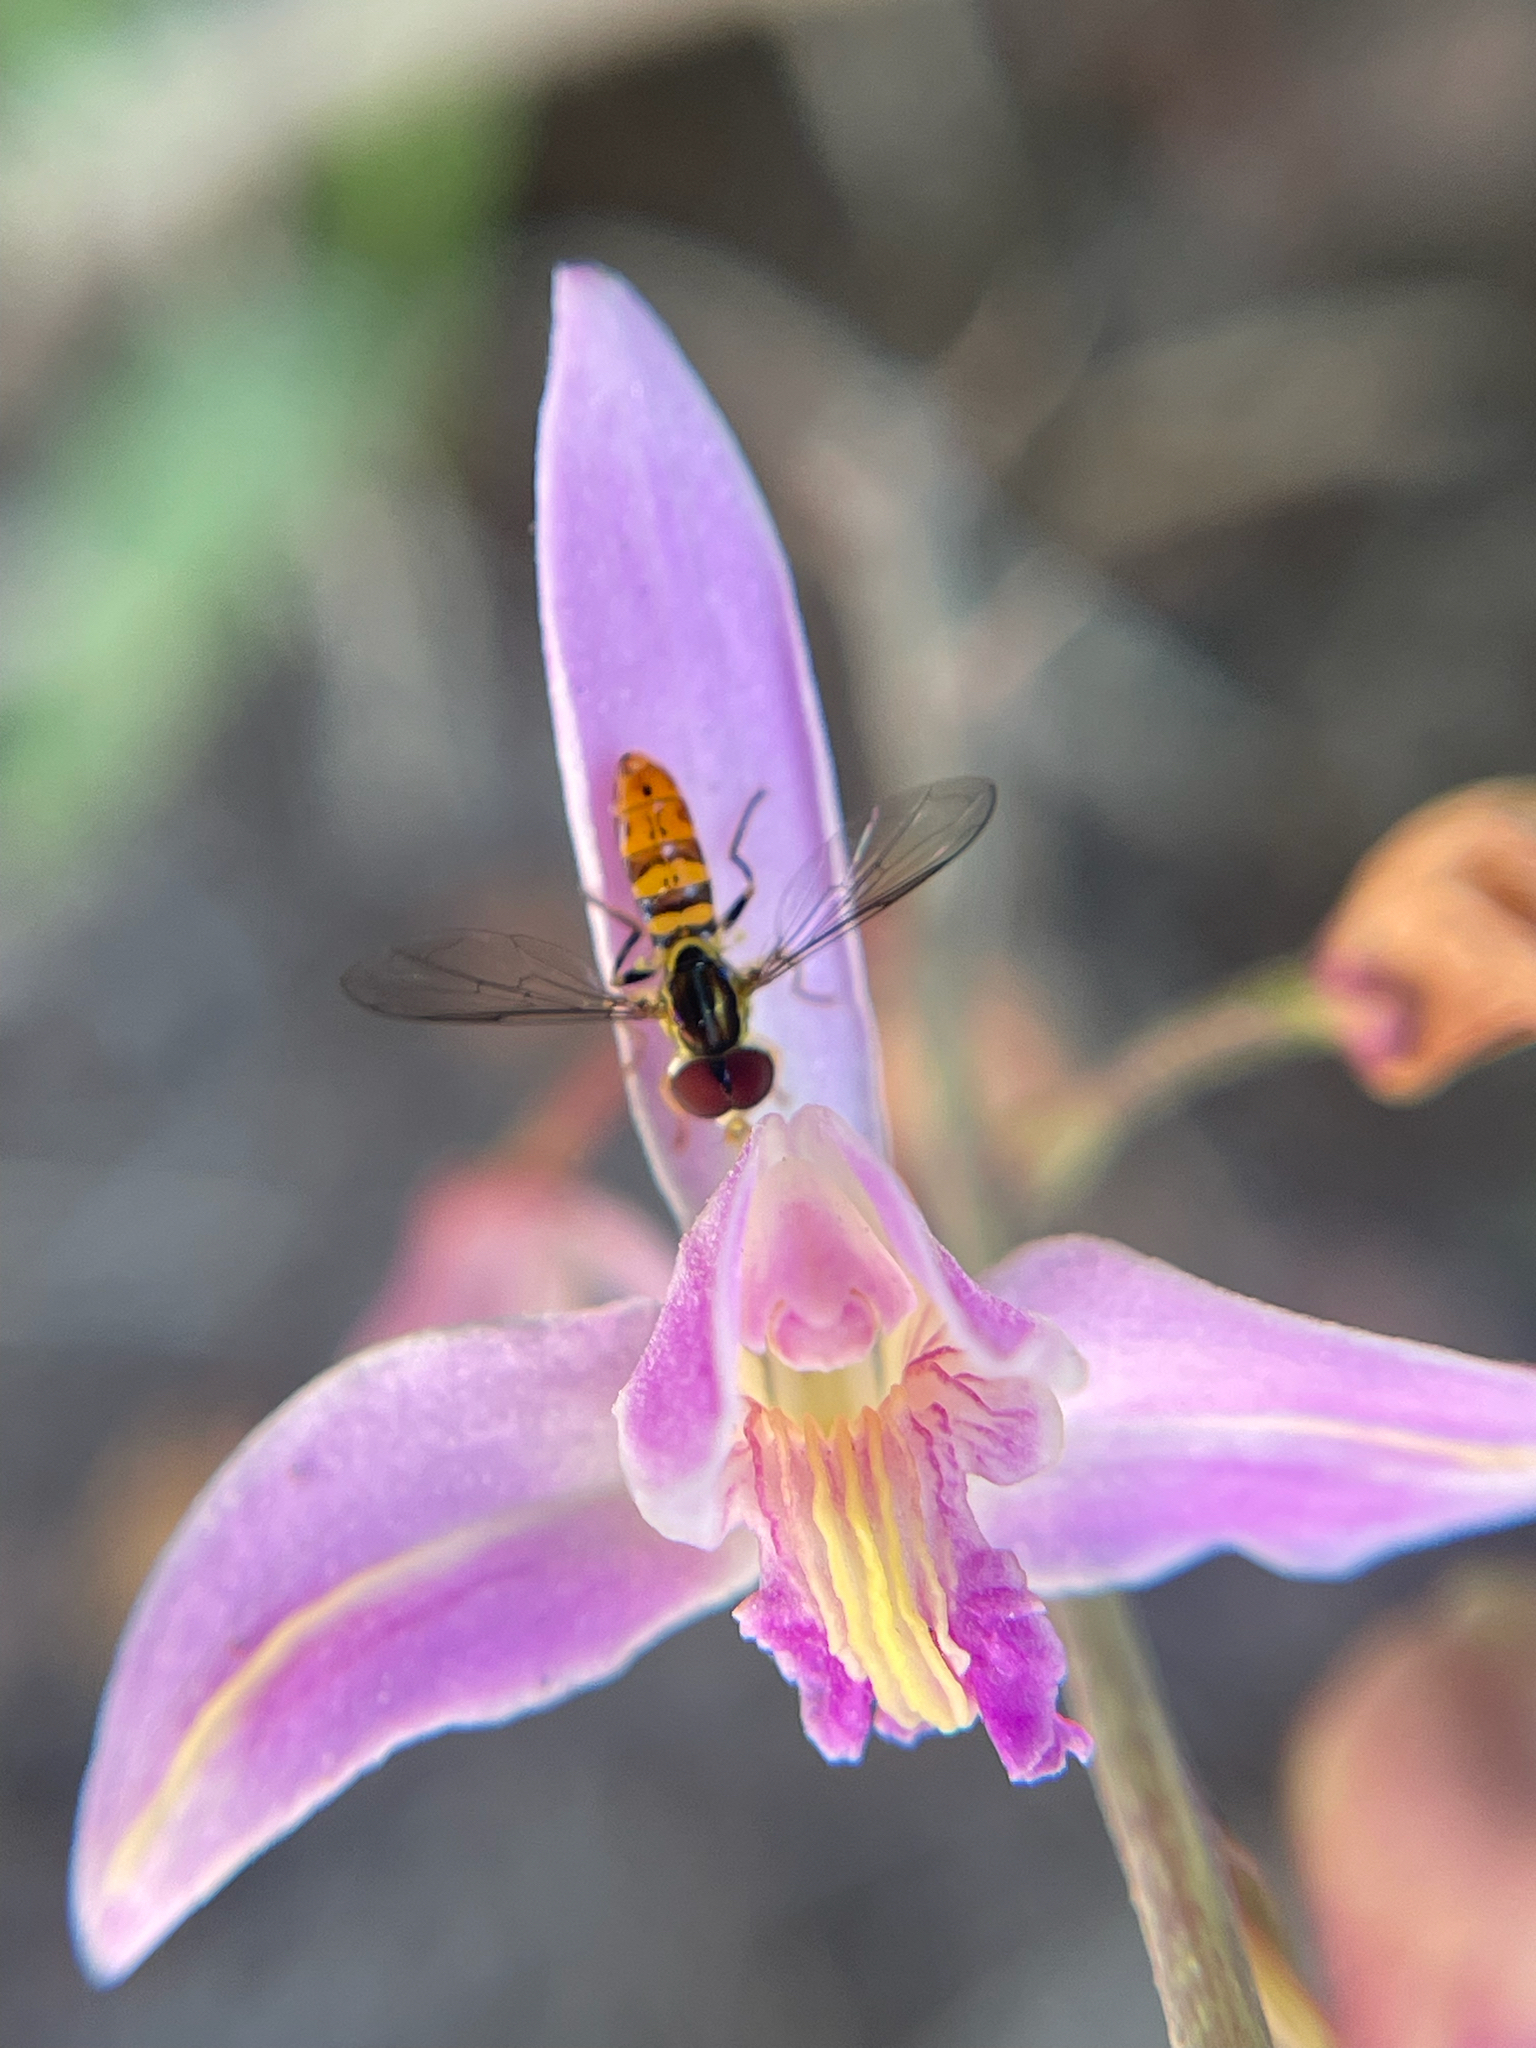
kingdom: Animalia
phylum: Arthropoda
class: Insecta
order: Diptera
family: Syrphidae
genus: Toxomerus
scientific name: Toxomerus floralis
